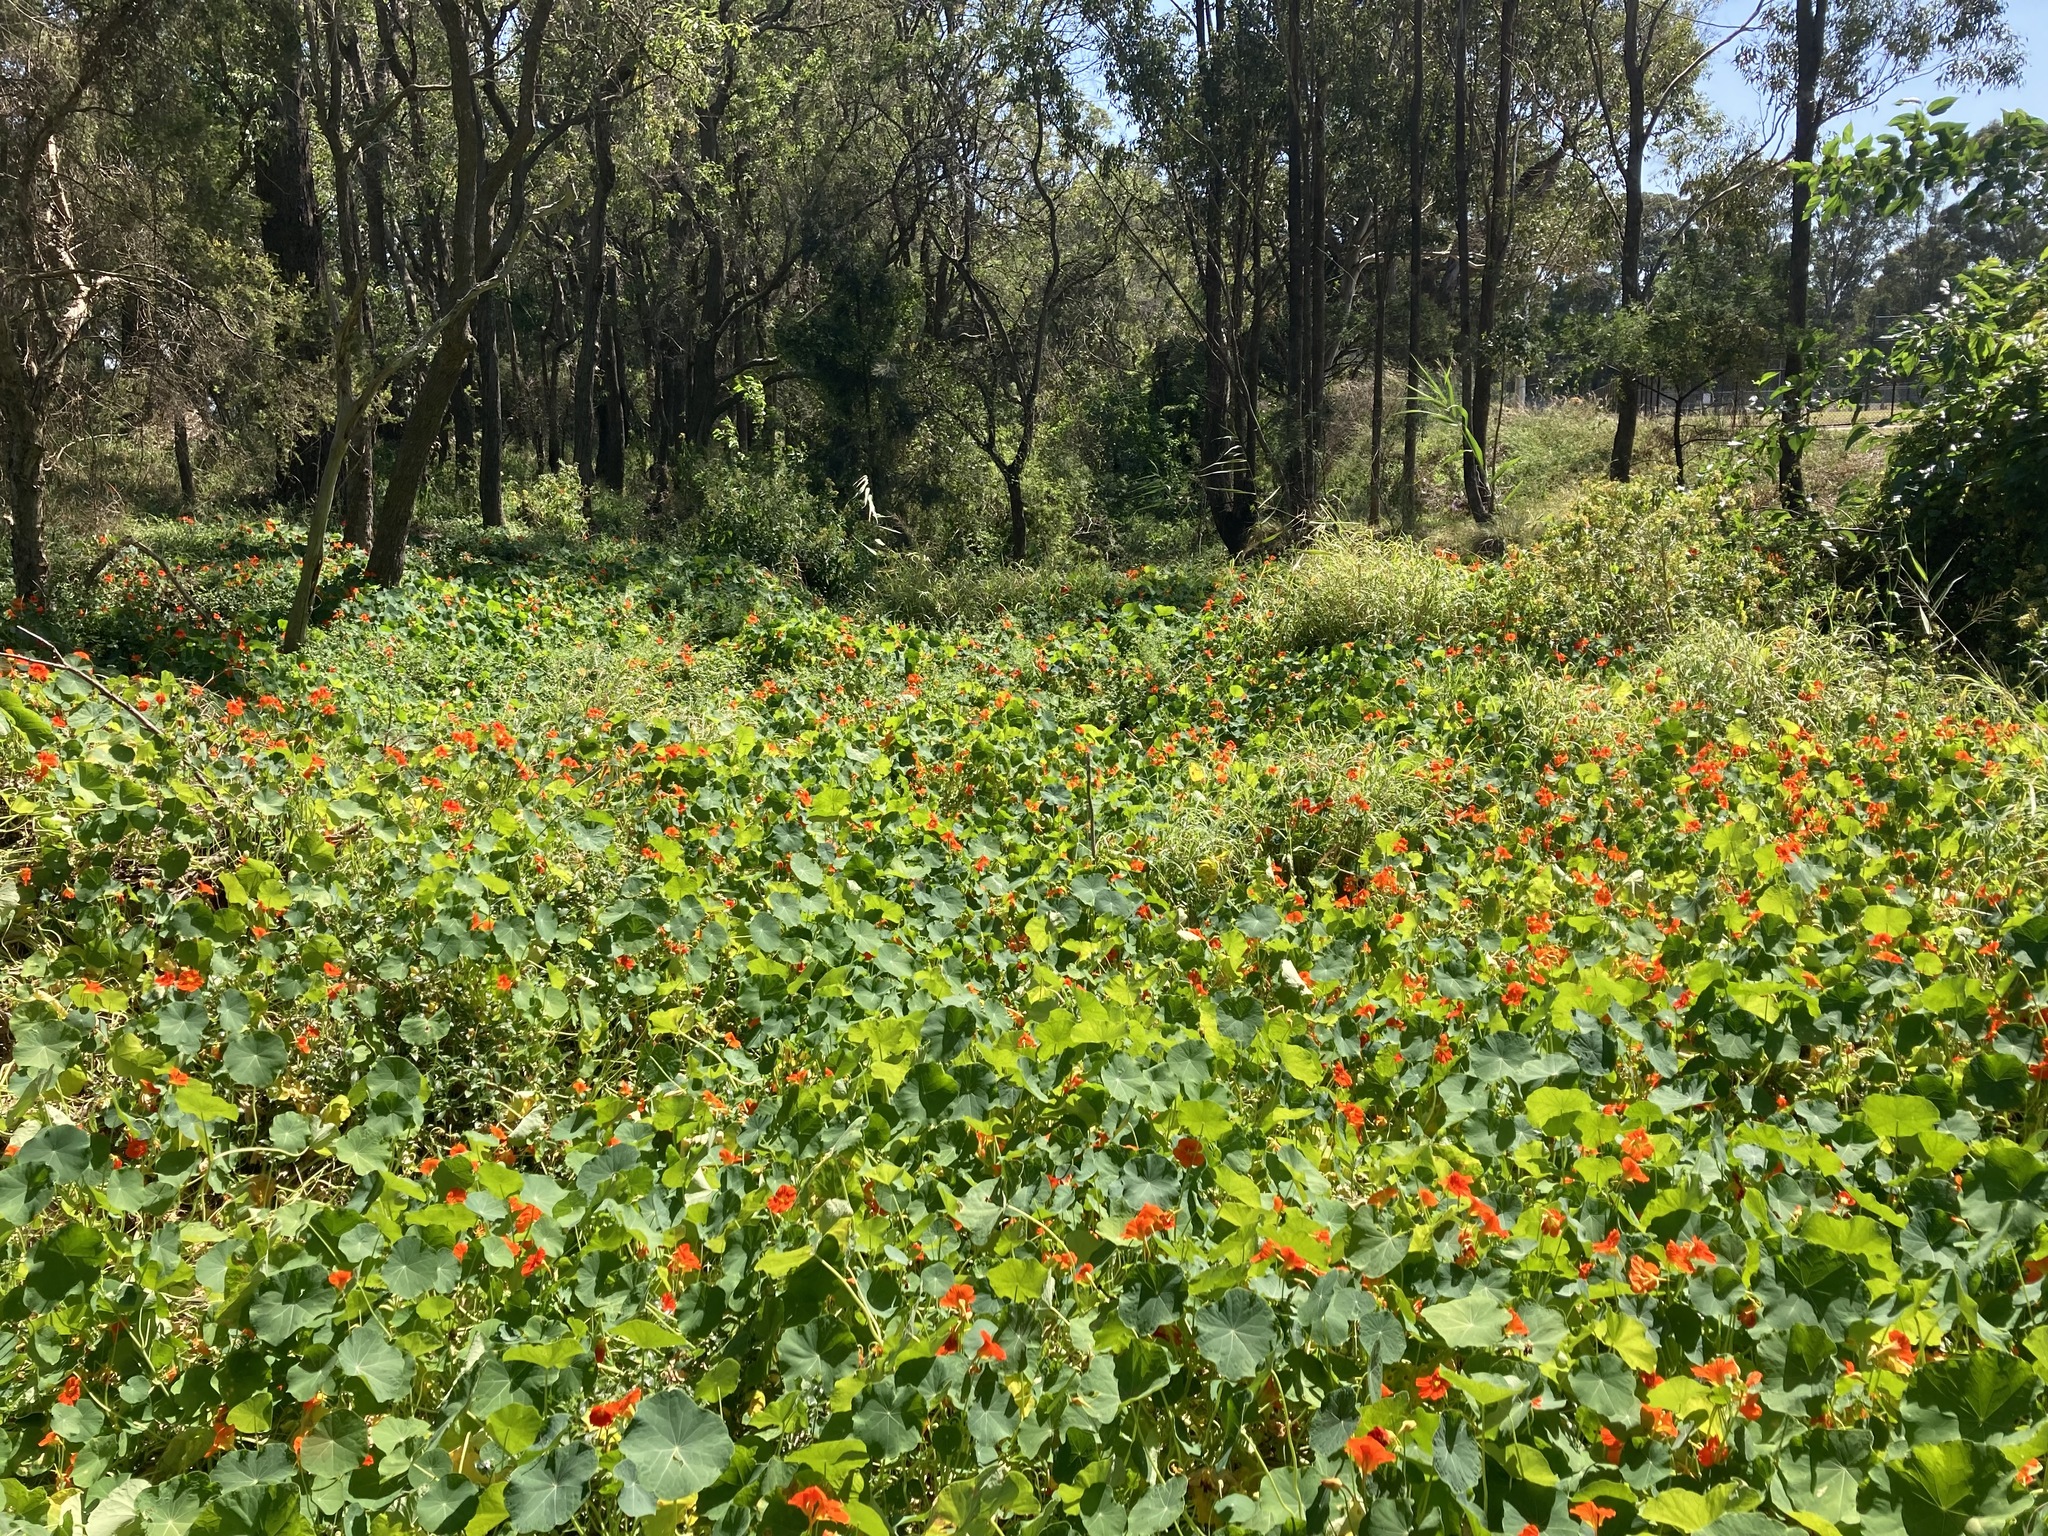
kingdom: Plantae
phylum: Tracheophyta
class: Magnoliopsida
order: Brassicales
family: Tropaeolaceae
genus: Tropaeolum
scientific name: Tropaeolum majus
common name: Nasturtium
